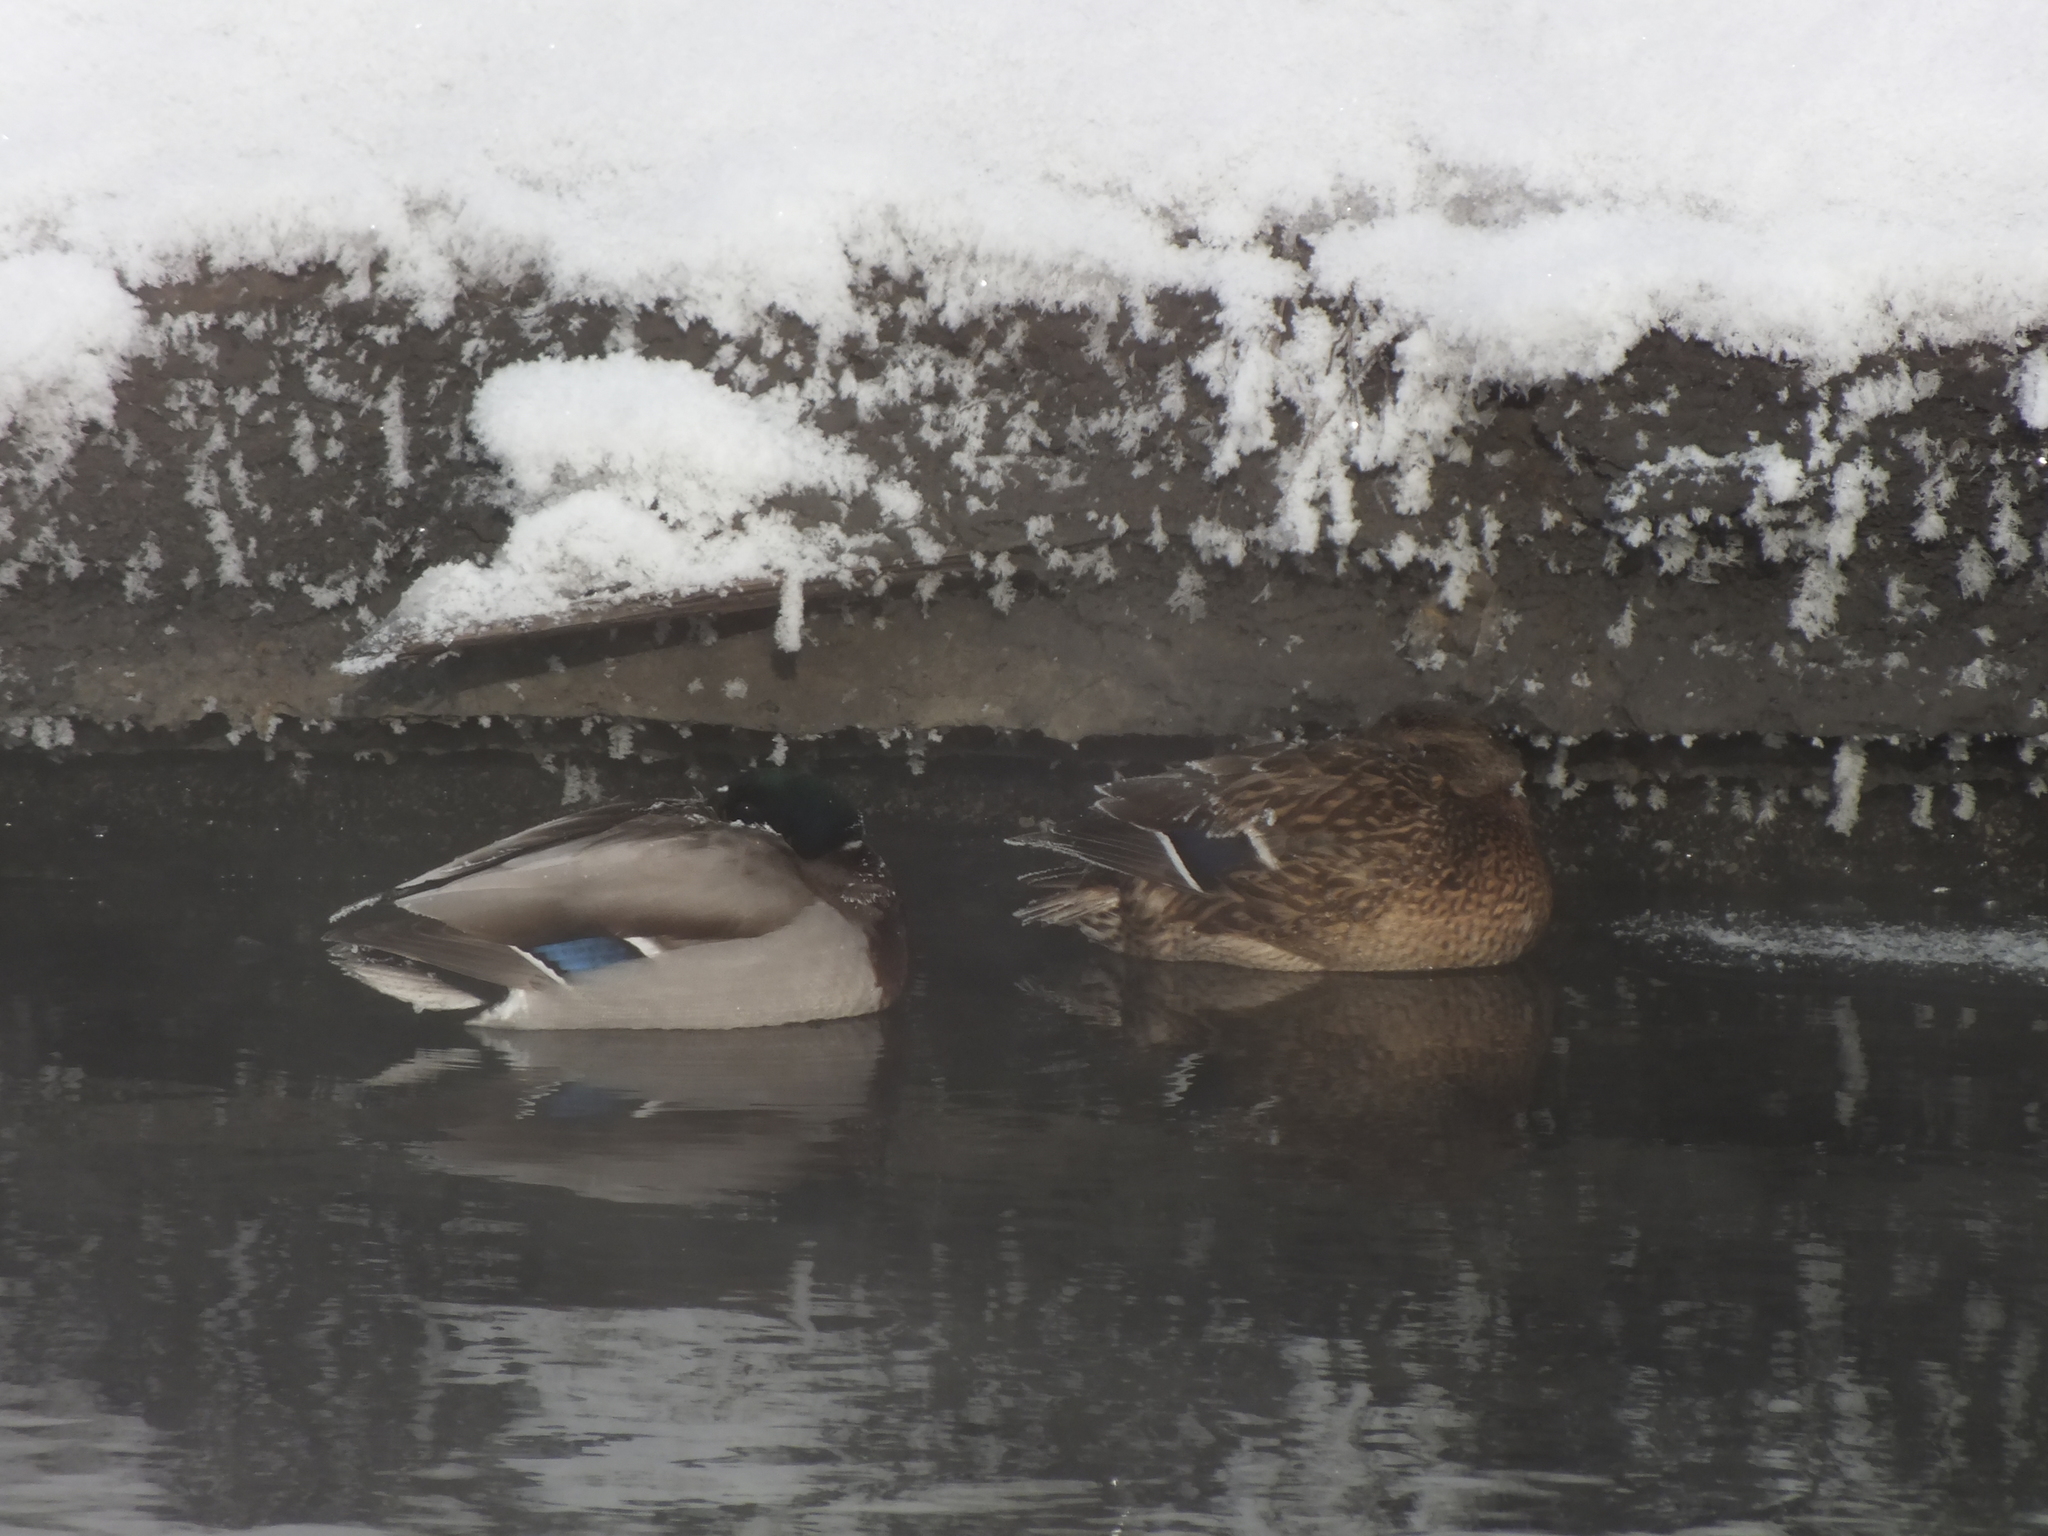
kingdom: Animalia
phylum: Chordata
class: Aves
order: Anseriformes
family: Anatidae
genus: Anas
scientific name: Anas platyrhynchos
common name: Mallard
